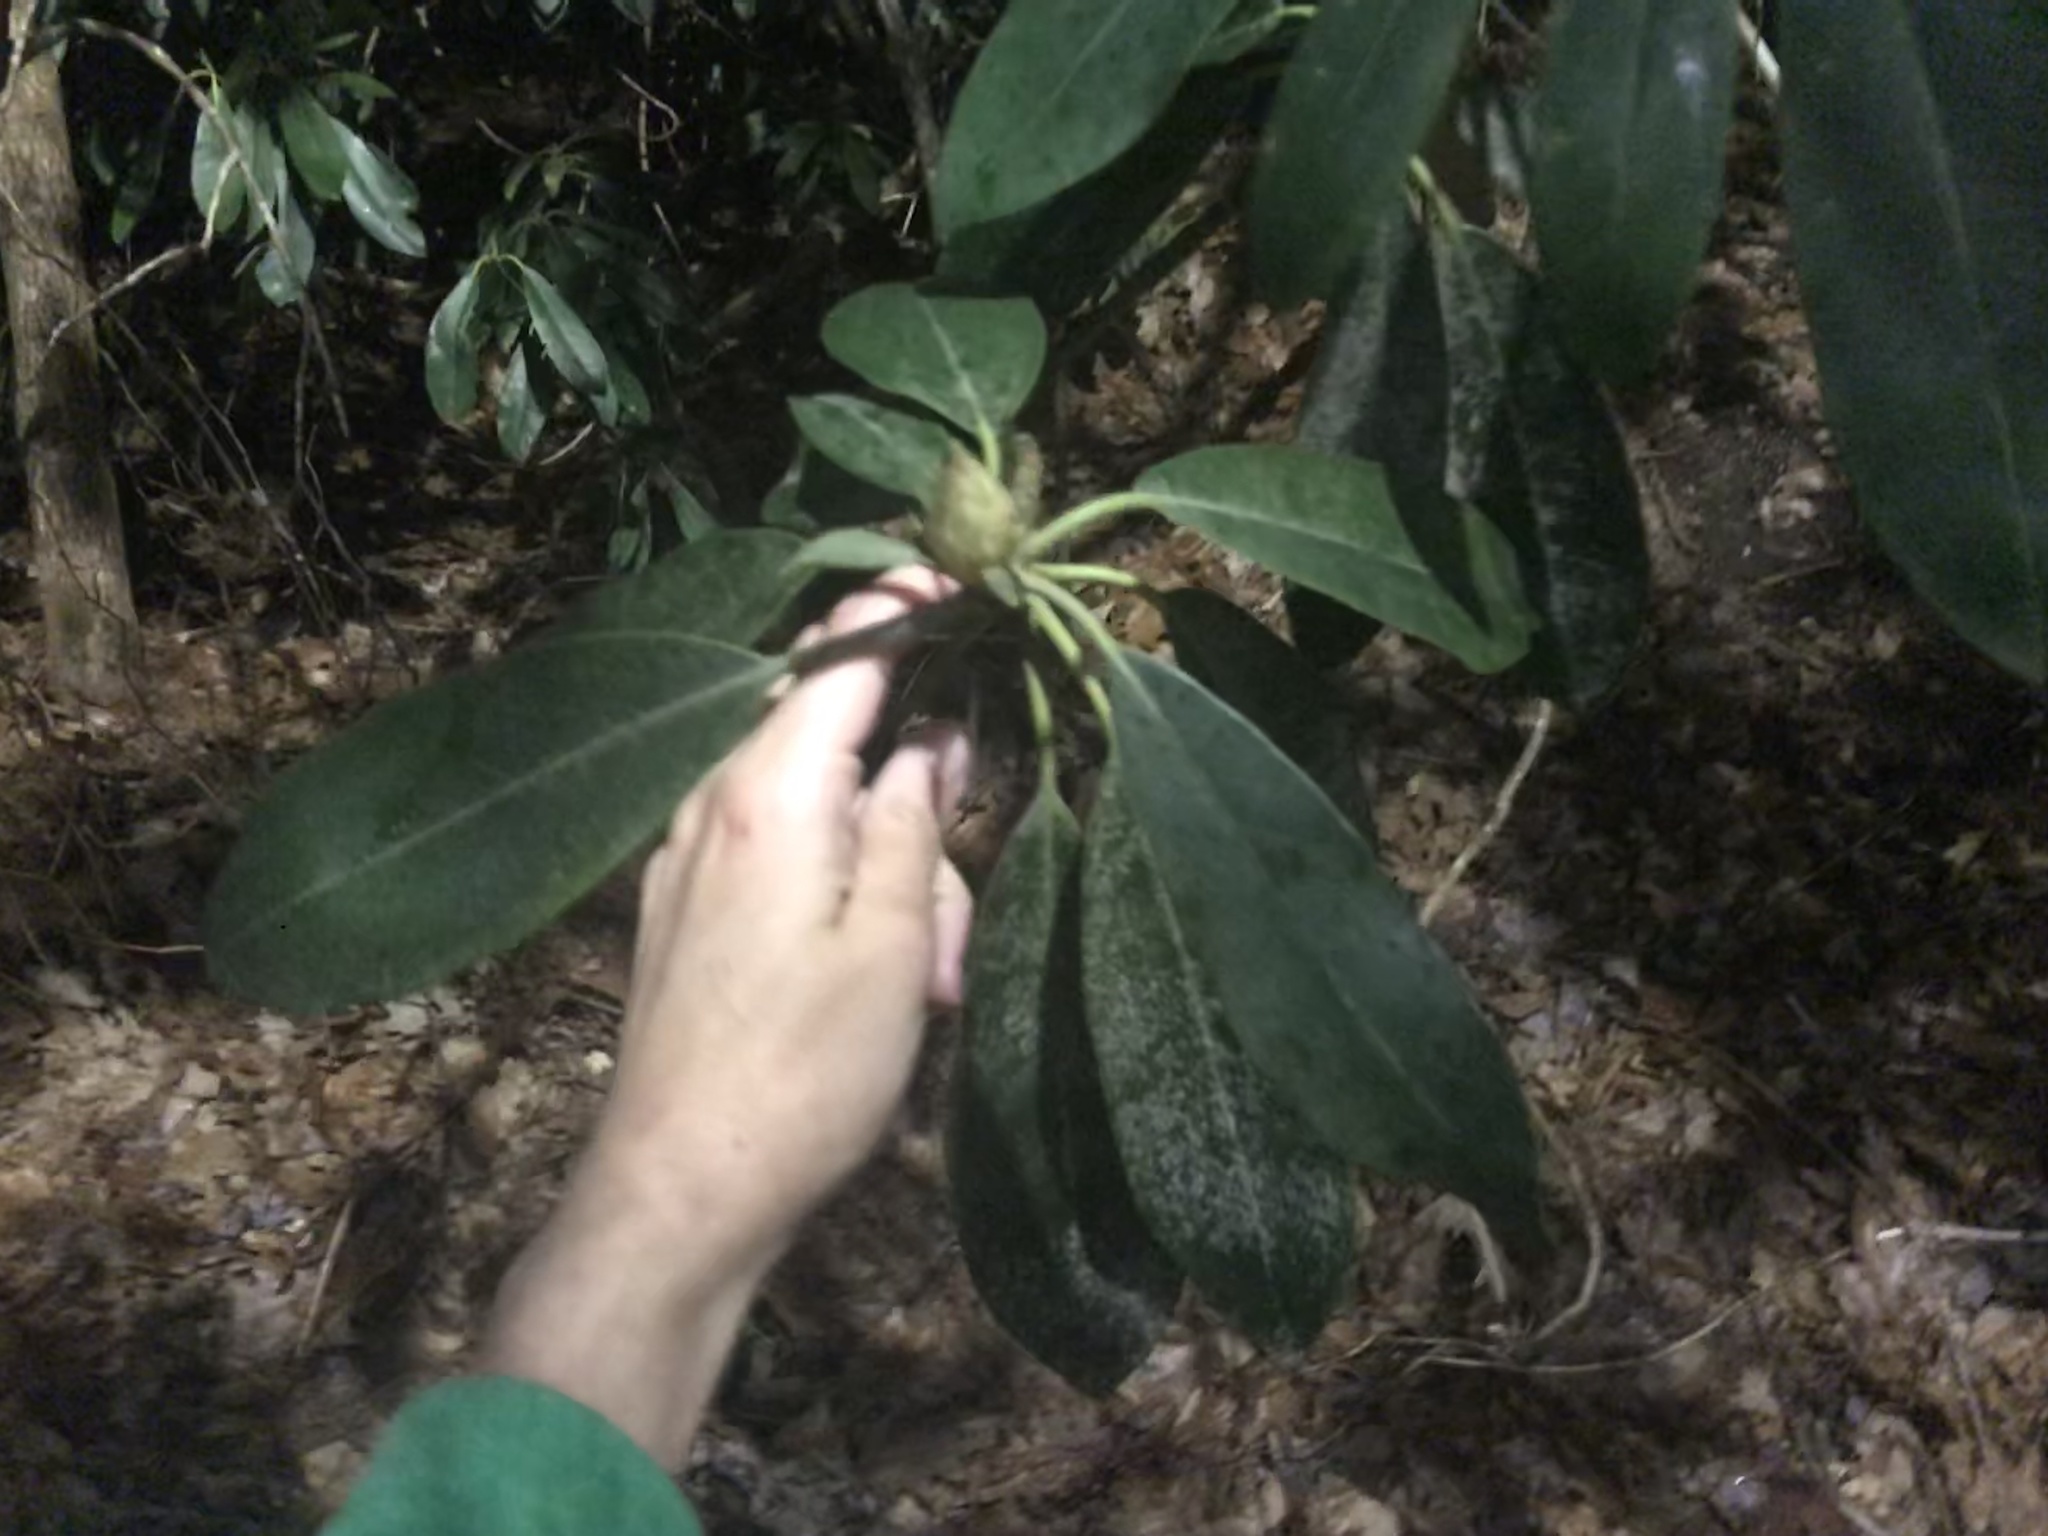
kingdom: Plantae
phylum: Tracheophyta
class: Magnoliopsida
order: Ericales
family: Ericaceae
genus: Rhododendron
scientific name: Rhododendron maximum
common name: Great rhododendron
